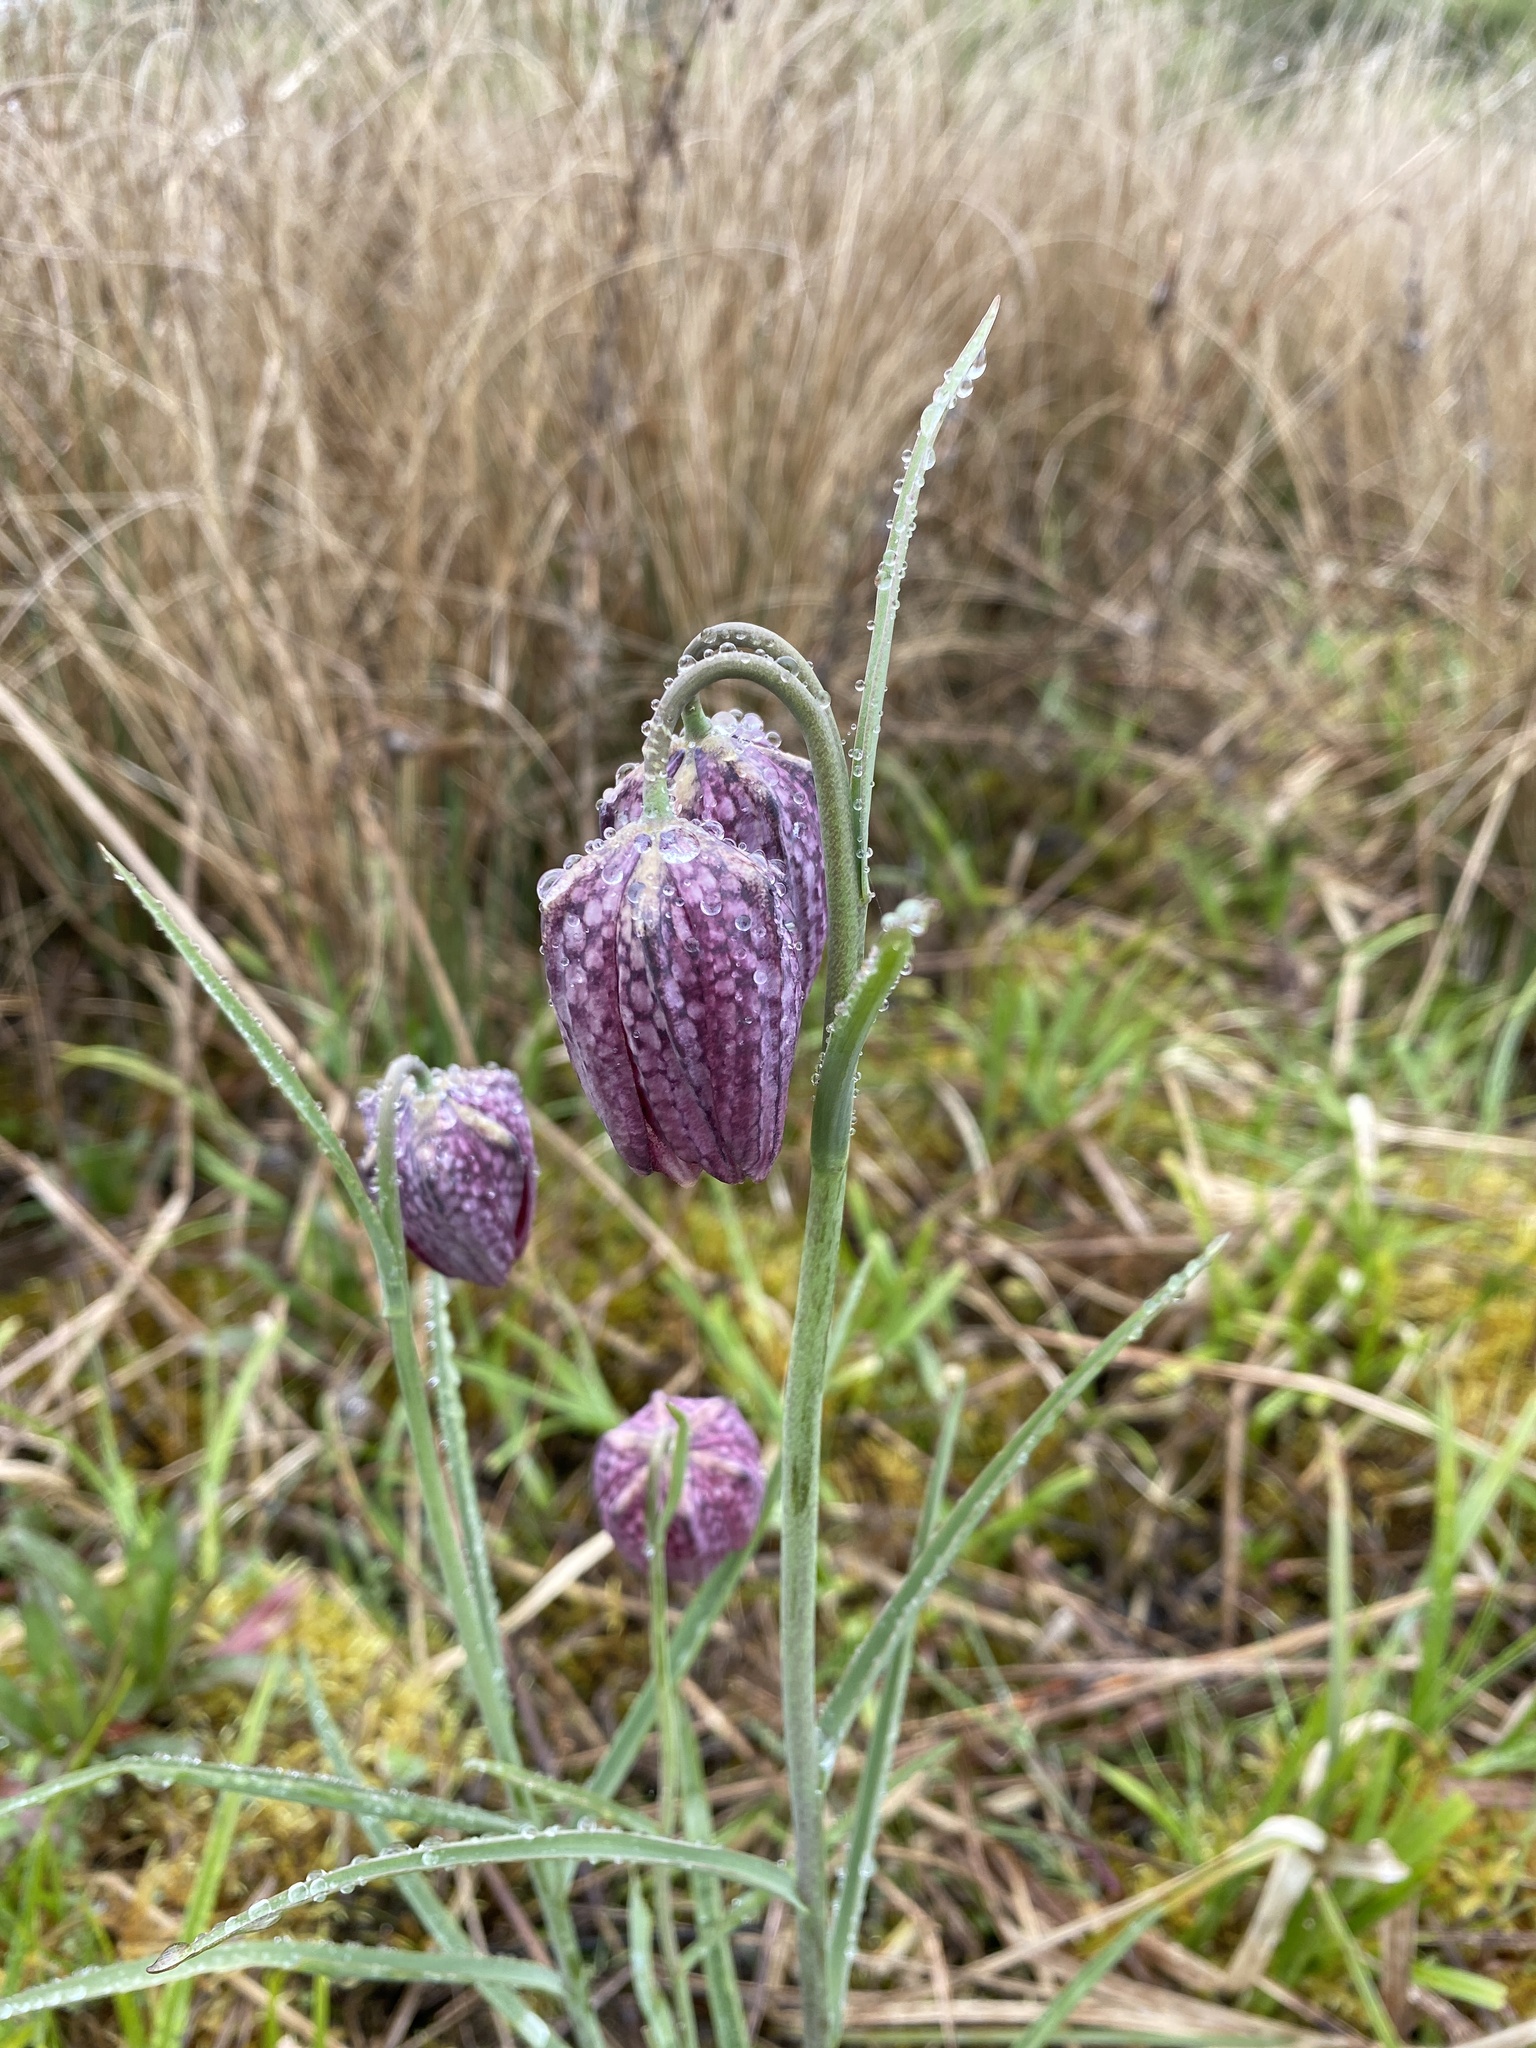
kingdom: Plantae
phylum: Tracheophyta
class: Liliopsida
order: Liliales
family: Liliaceae
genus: Fritillaria
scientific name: Fritillaria meleagris
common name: Fritillary
